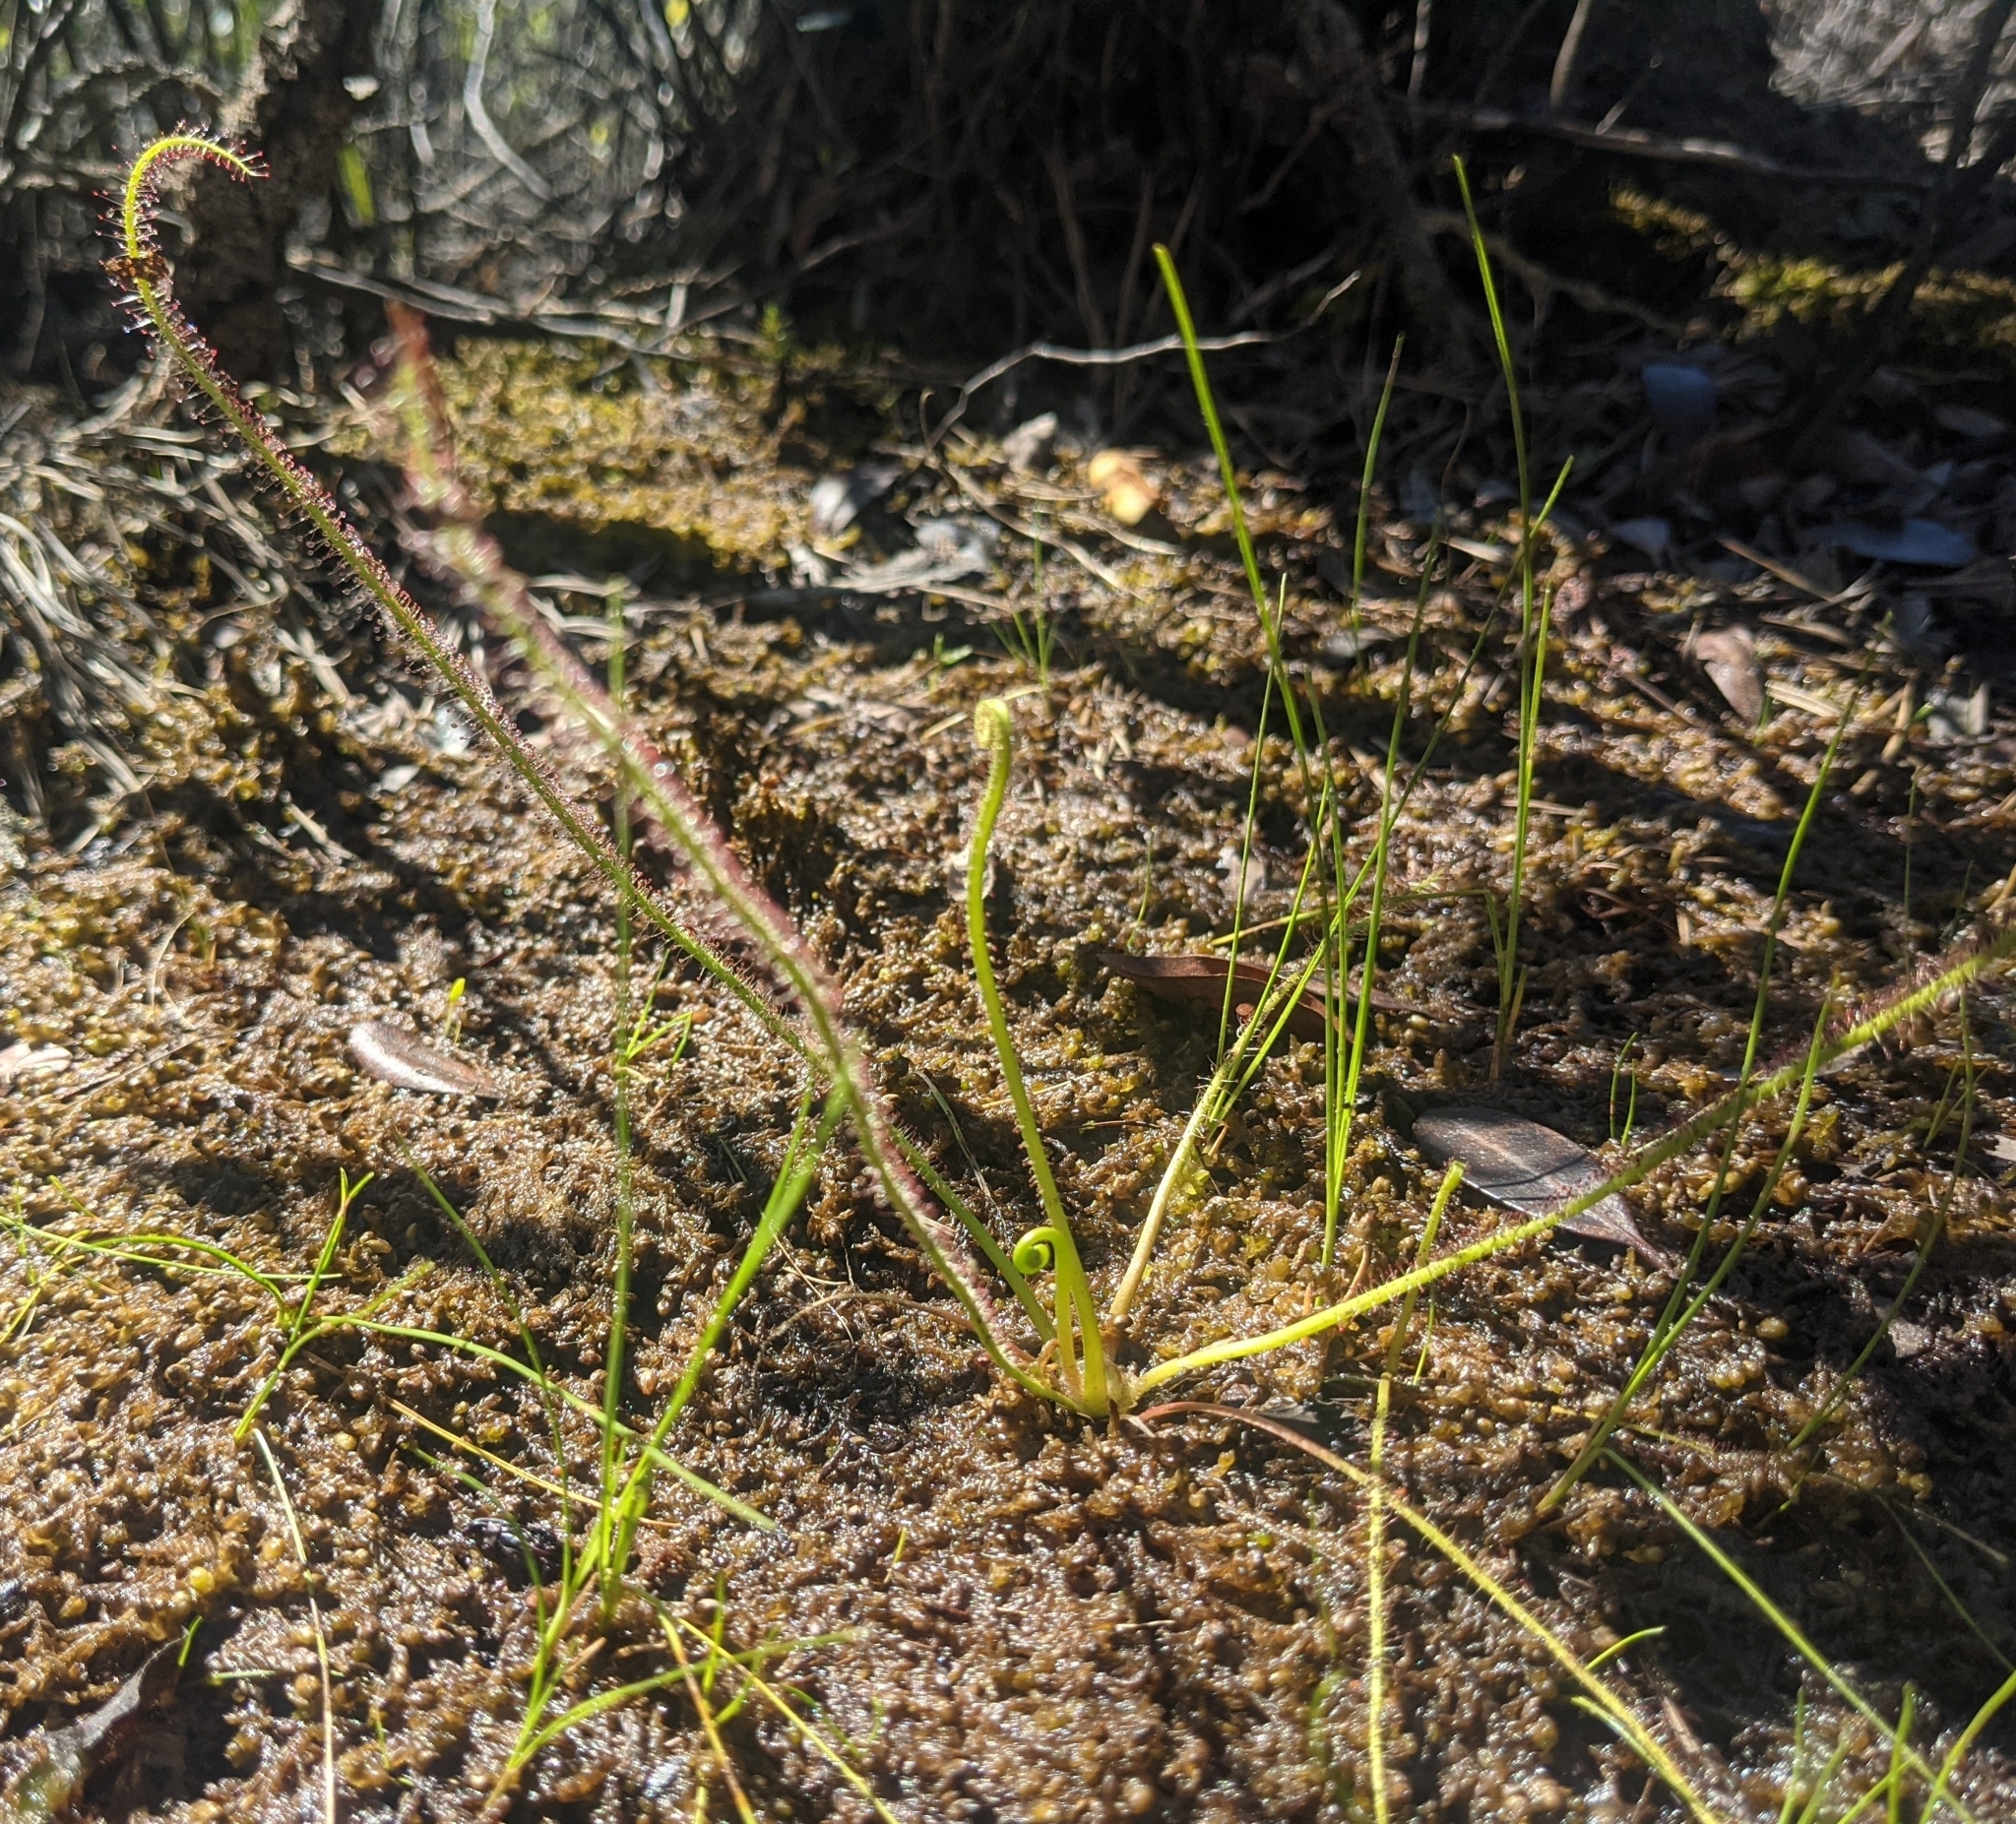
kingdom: Plantae
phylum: Tracheophyta
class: Magnoliopsida
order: Caryophyllales
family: Droseraceae
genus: Drosera
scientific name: Drosera filiformis
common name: Dew-thread
